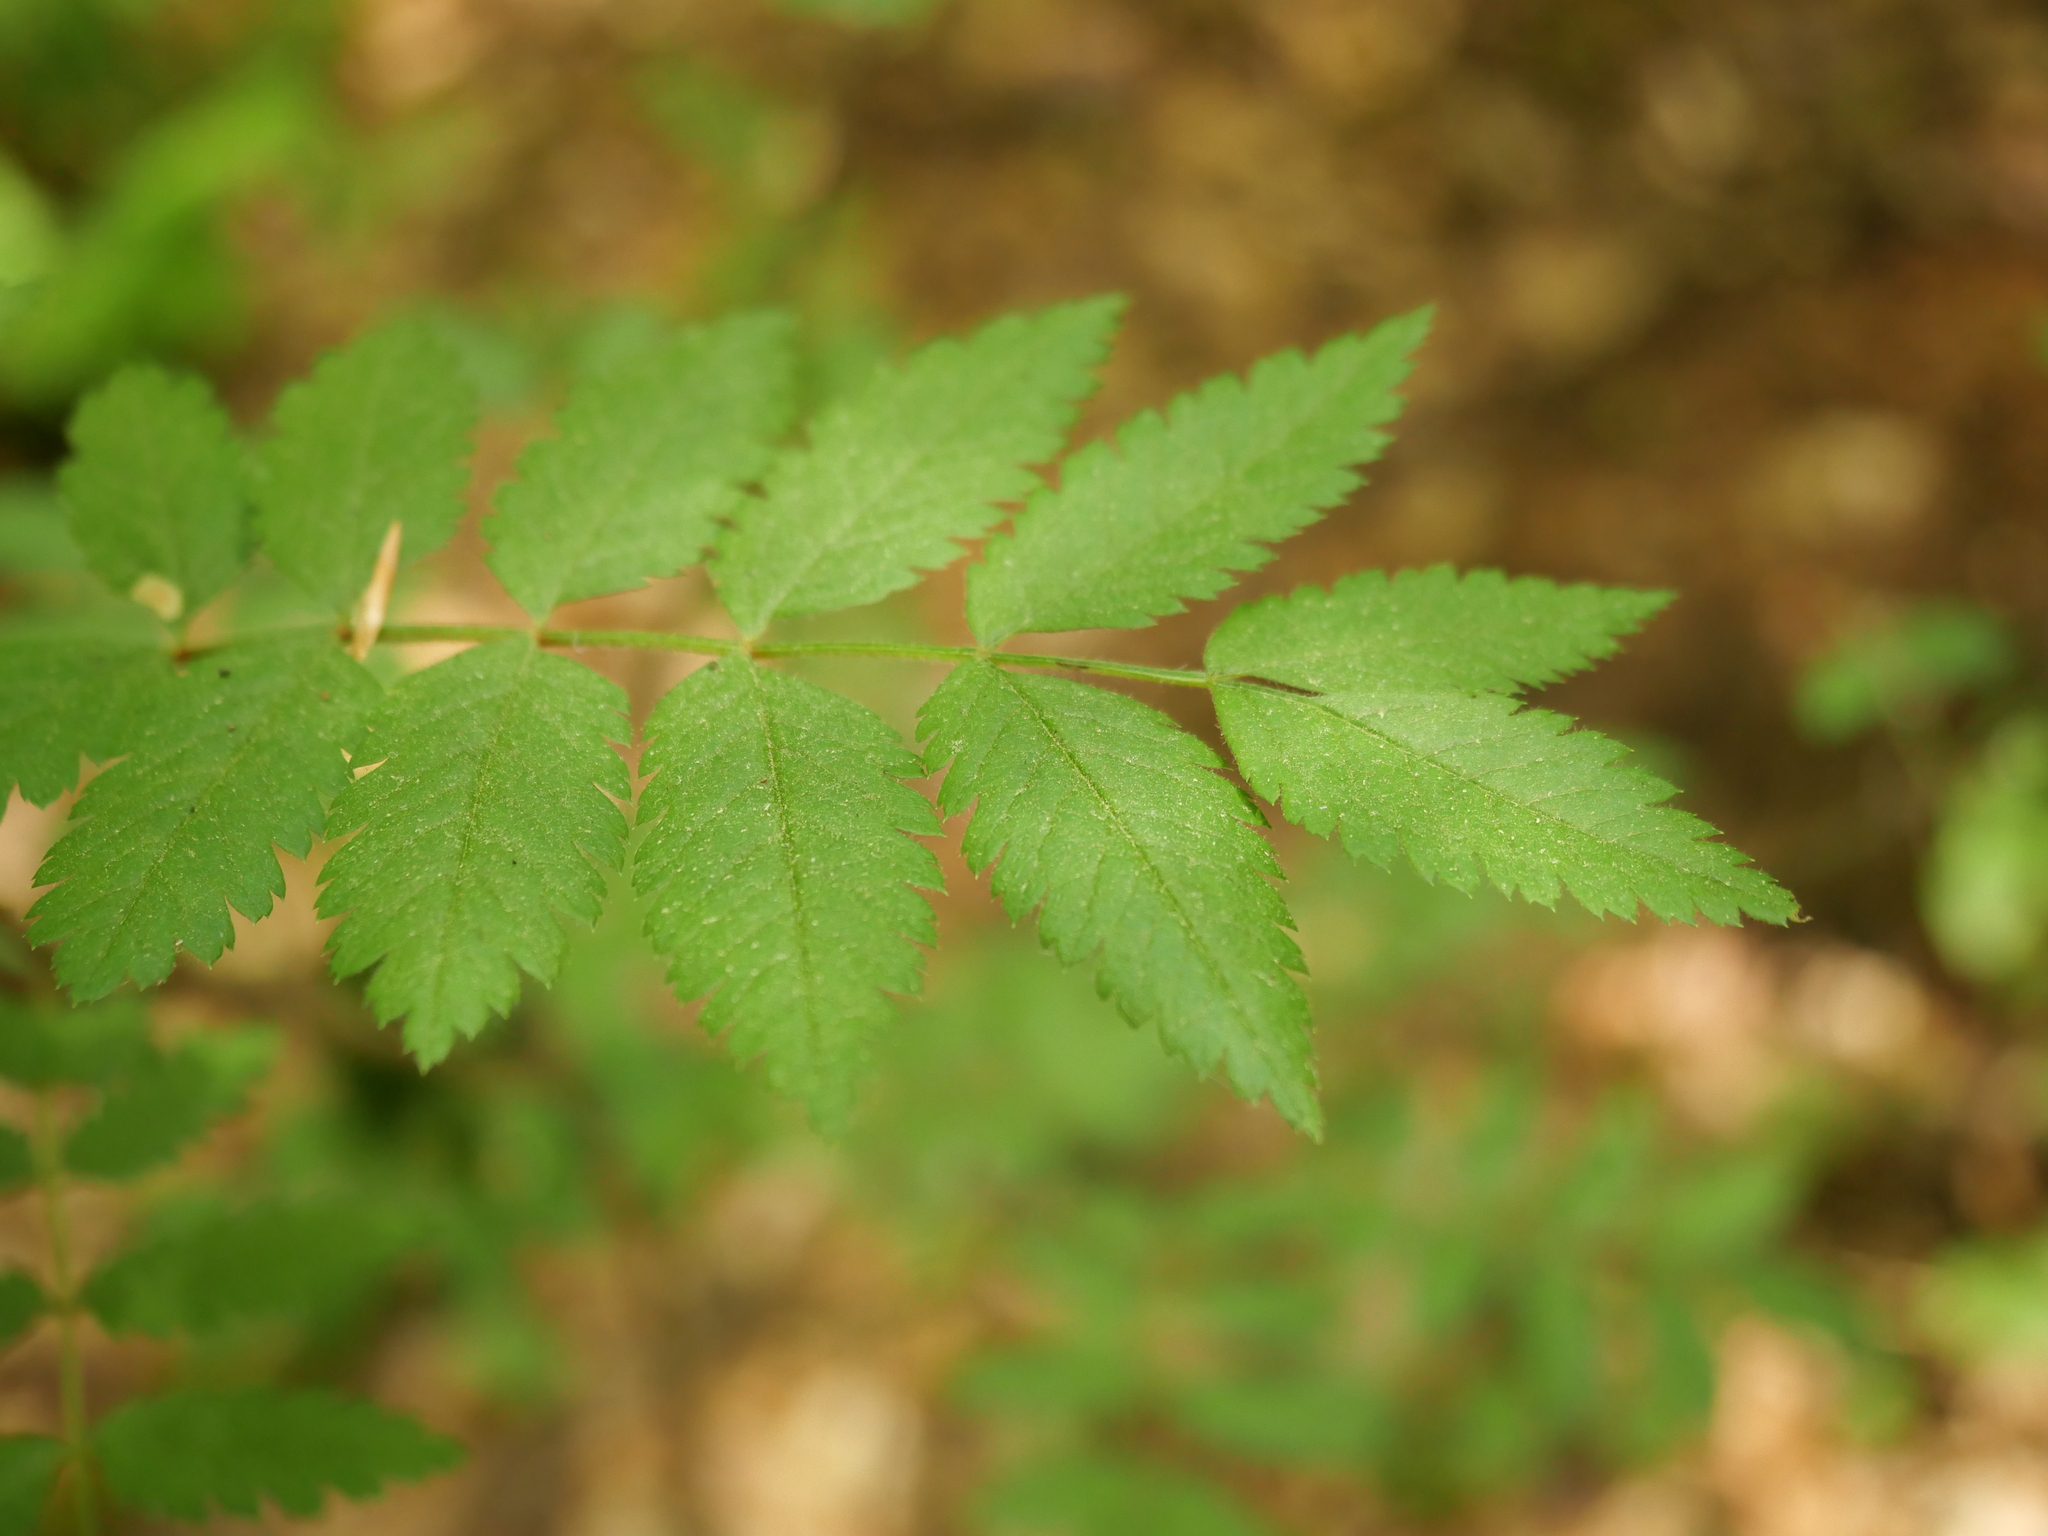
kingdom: Plantae
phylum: Tracheophyta
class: Magnoliopsida
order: Rosales
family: Rosaceae
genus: Sorbus
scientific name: Sorbus aucuparia
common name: Rowan
